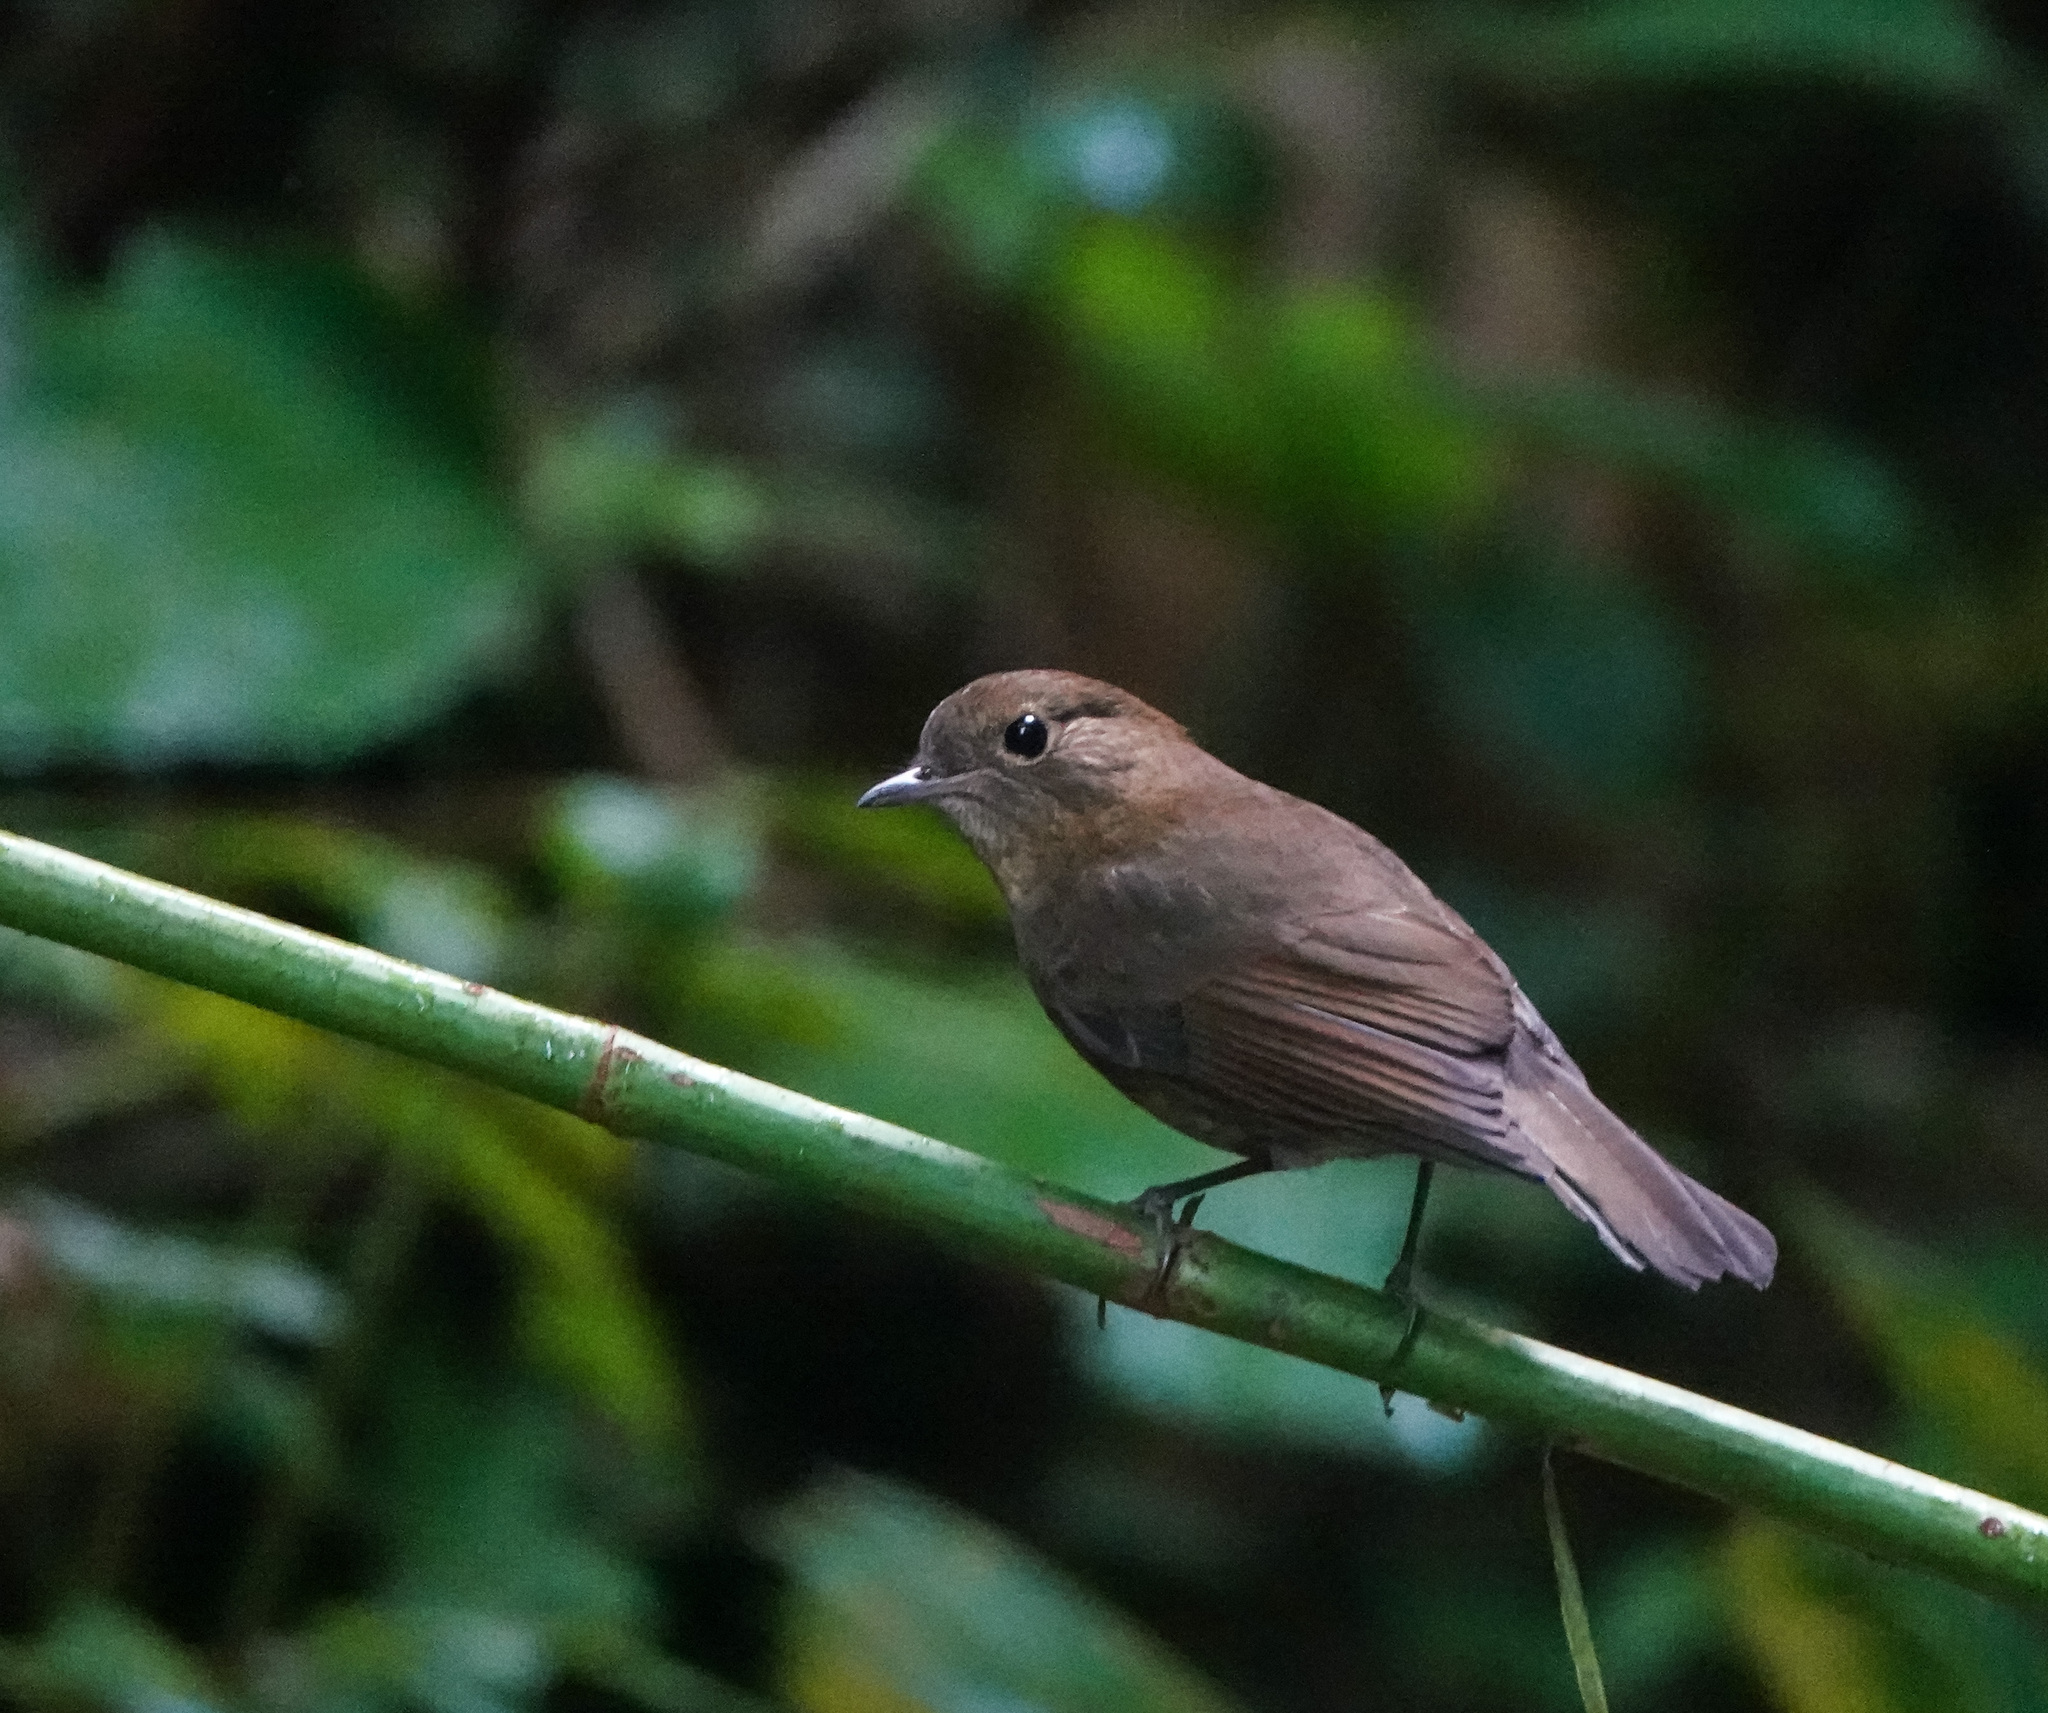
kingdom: Animalia
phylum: Chordata
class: Aves
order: Passeriformes
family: Muscicapidae
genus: Myiomela
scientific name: Myiomela leucura
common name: White-tailed robin
